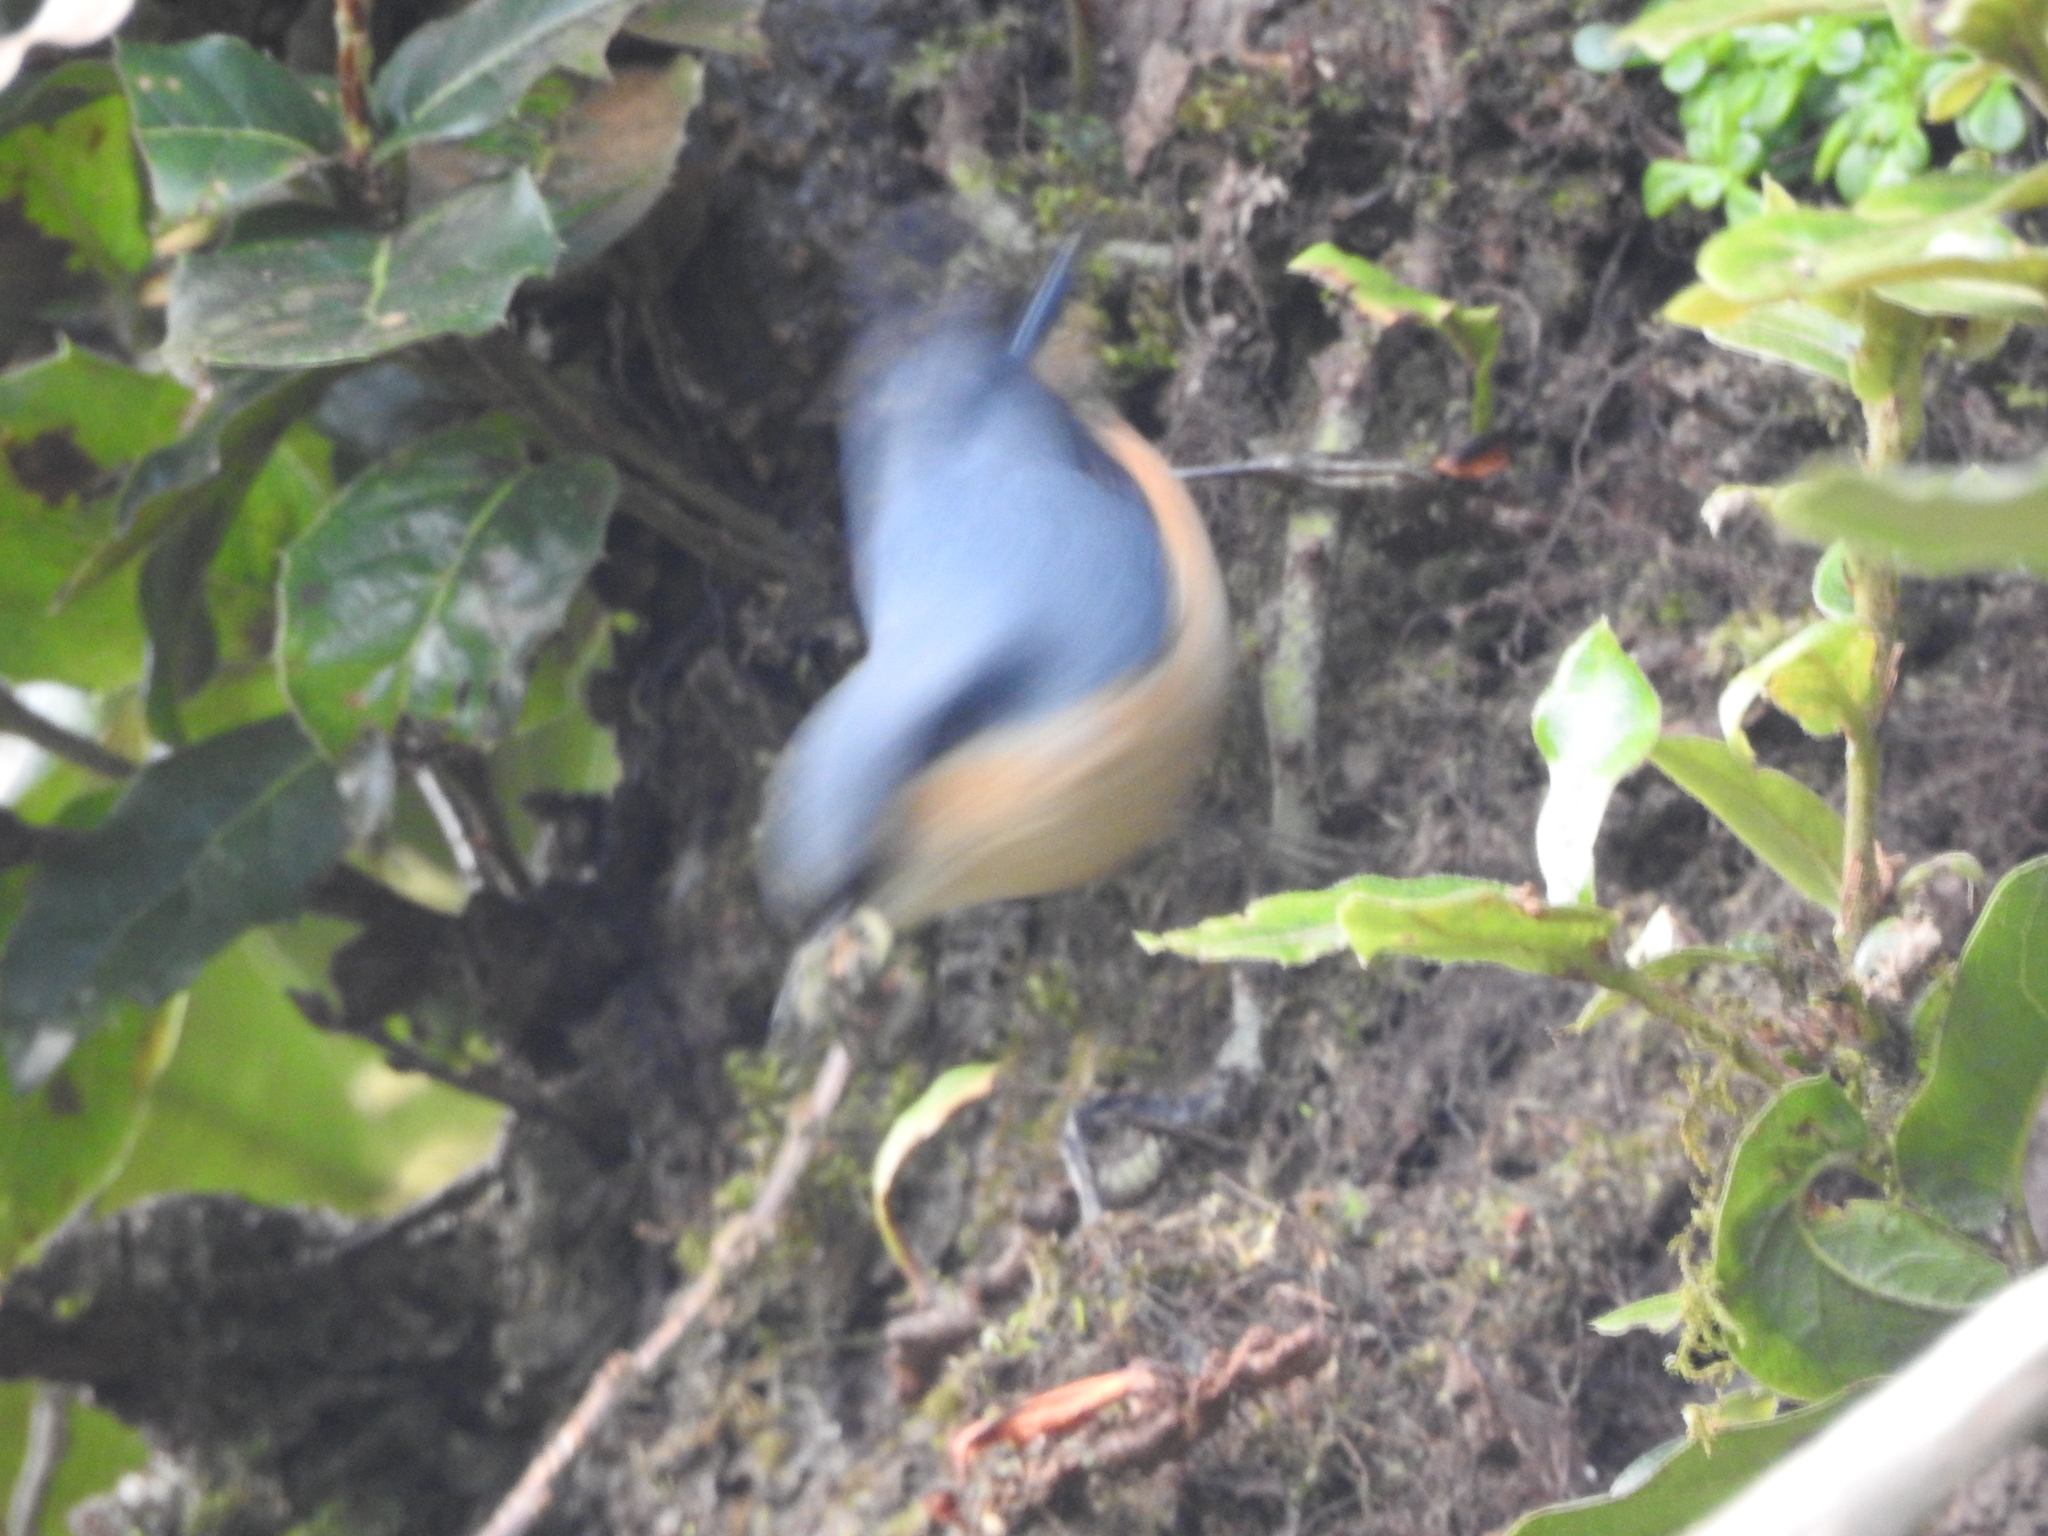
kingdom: Animalia
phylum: Chordata
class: Aves
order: Passeriformes
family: Sittidae
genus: Sitta
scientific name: Sitta himalayensis
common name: White-tailed nuthatch
